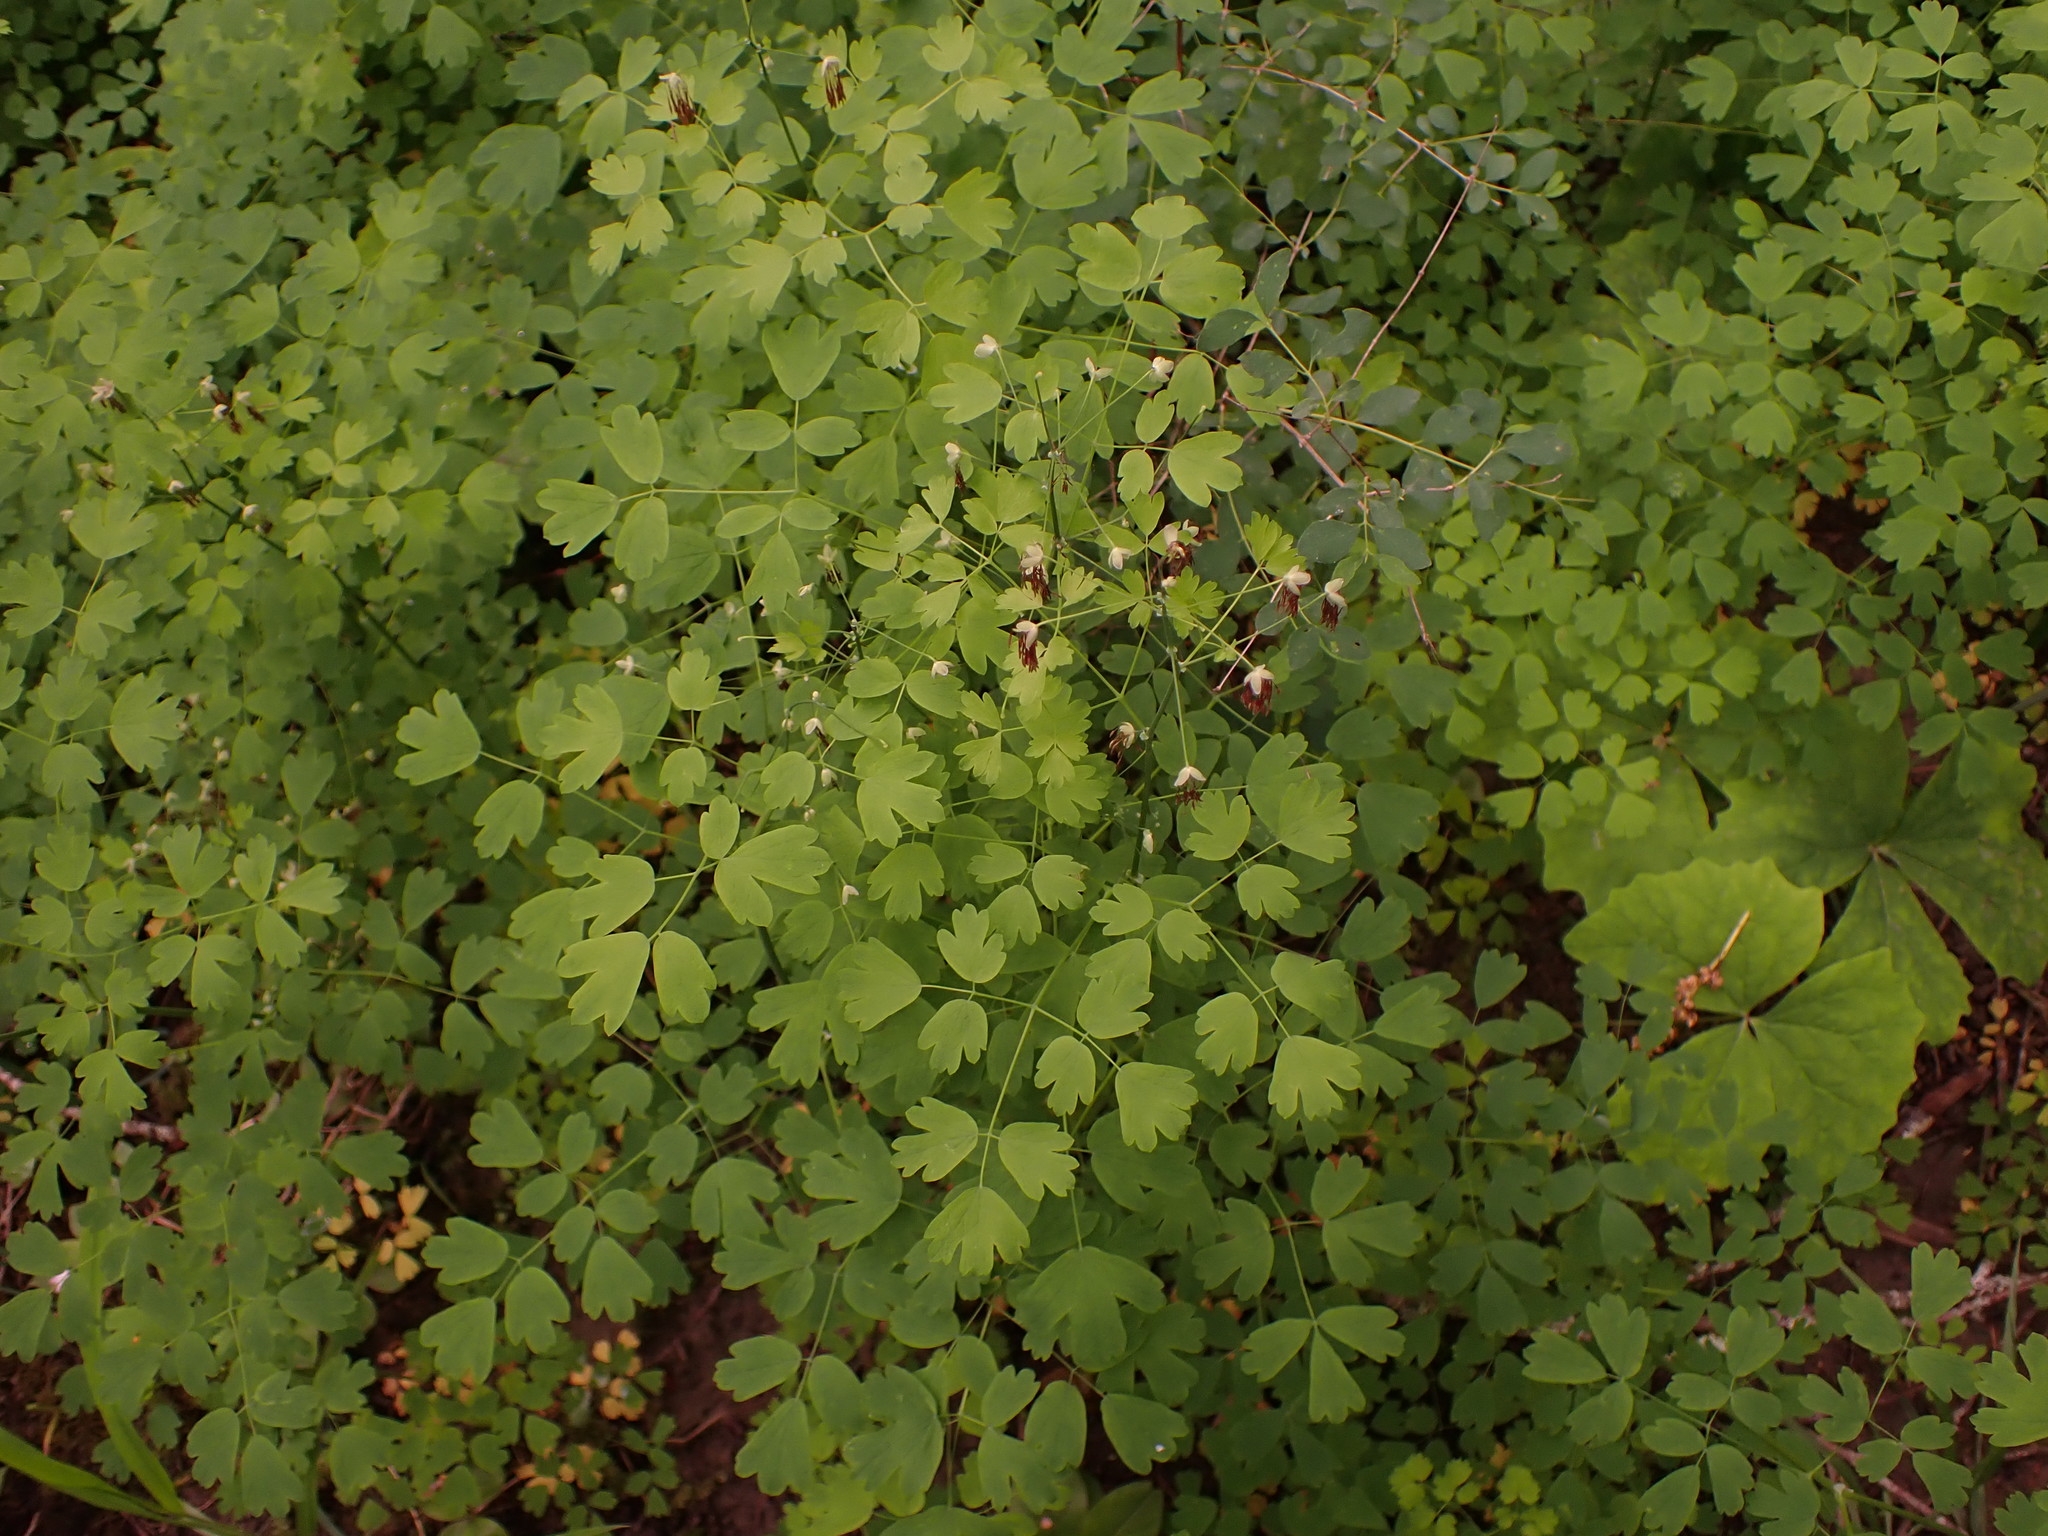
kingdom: Plantae
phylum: Tracheophyta
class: Magnoliopsida
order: Ranunculales
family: Ranunculaceae
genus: Thalictrum
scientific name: Thalictrum occidentale
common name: Western meadow-rue
